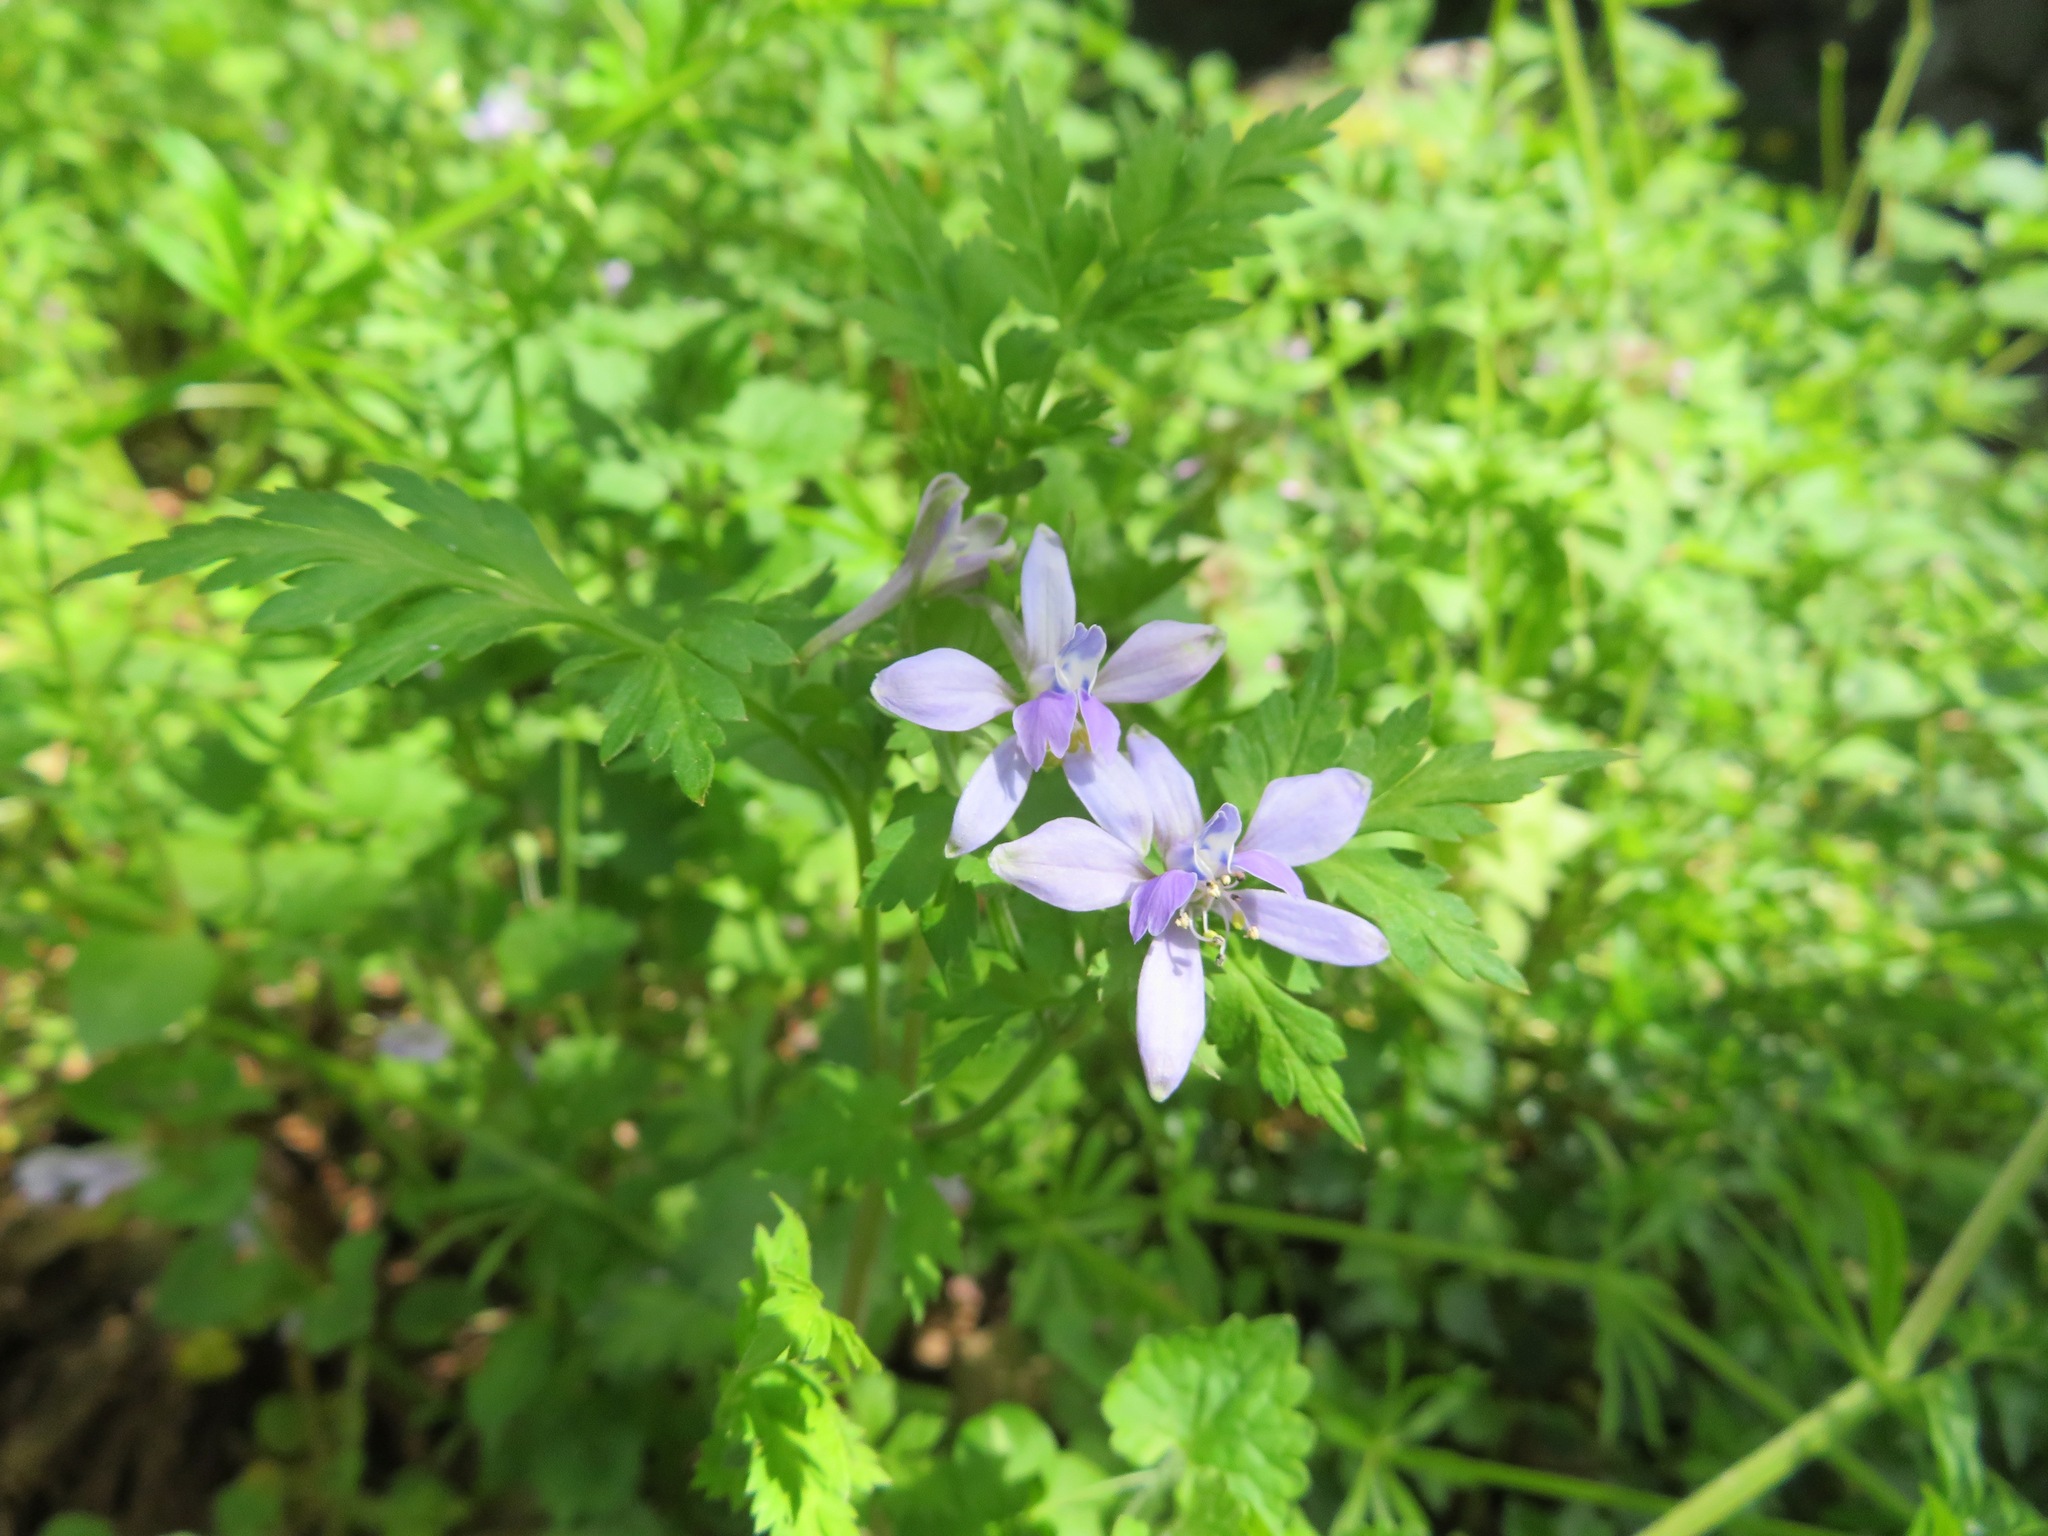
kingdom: Plantae
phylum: Tracheophyta
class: Magnoliopsida
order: Ranunculales
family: Ranunculaceae
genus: Delphinium
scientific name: Delphinium anthriscifolium
